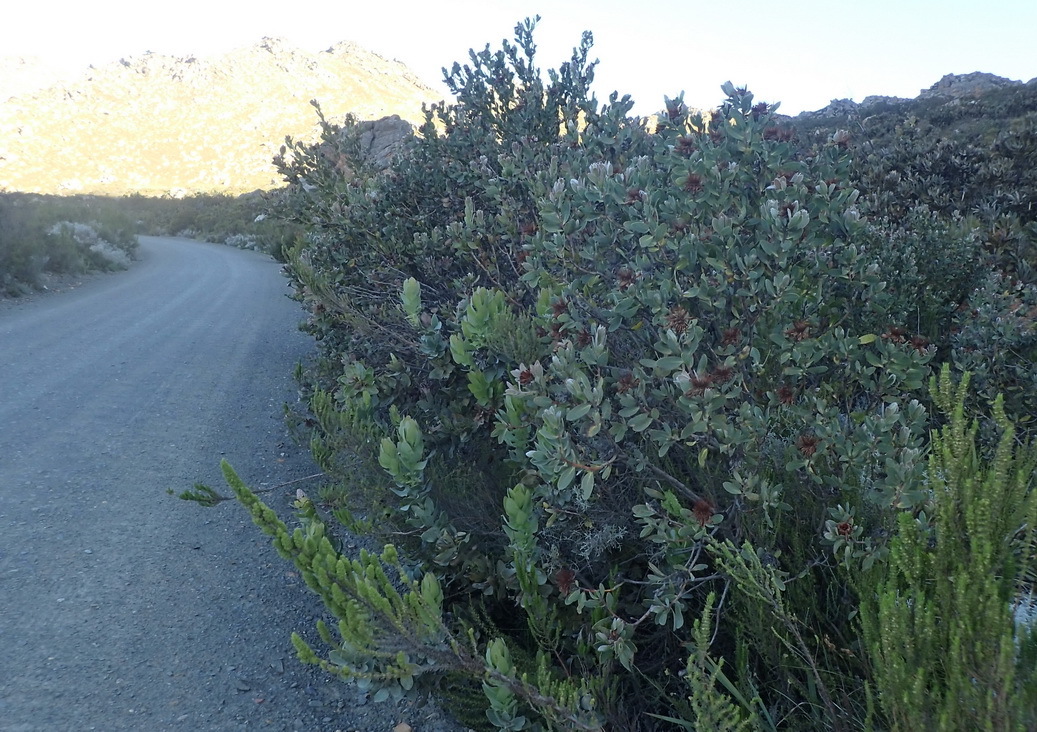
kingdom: Plantae
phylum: Tracheophyta
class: Magnoliopsida
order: Proteales
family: Proteaceae
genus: Protea
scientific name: Protea punctata
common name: Water sugarbush
